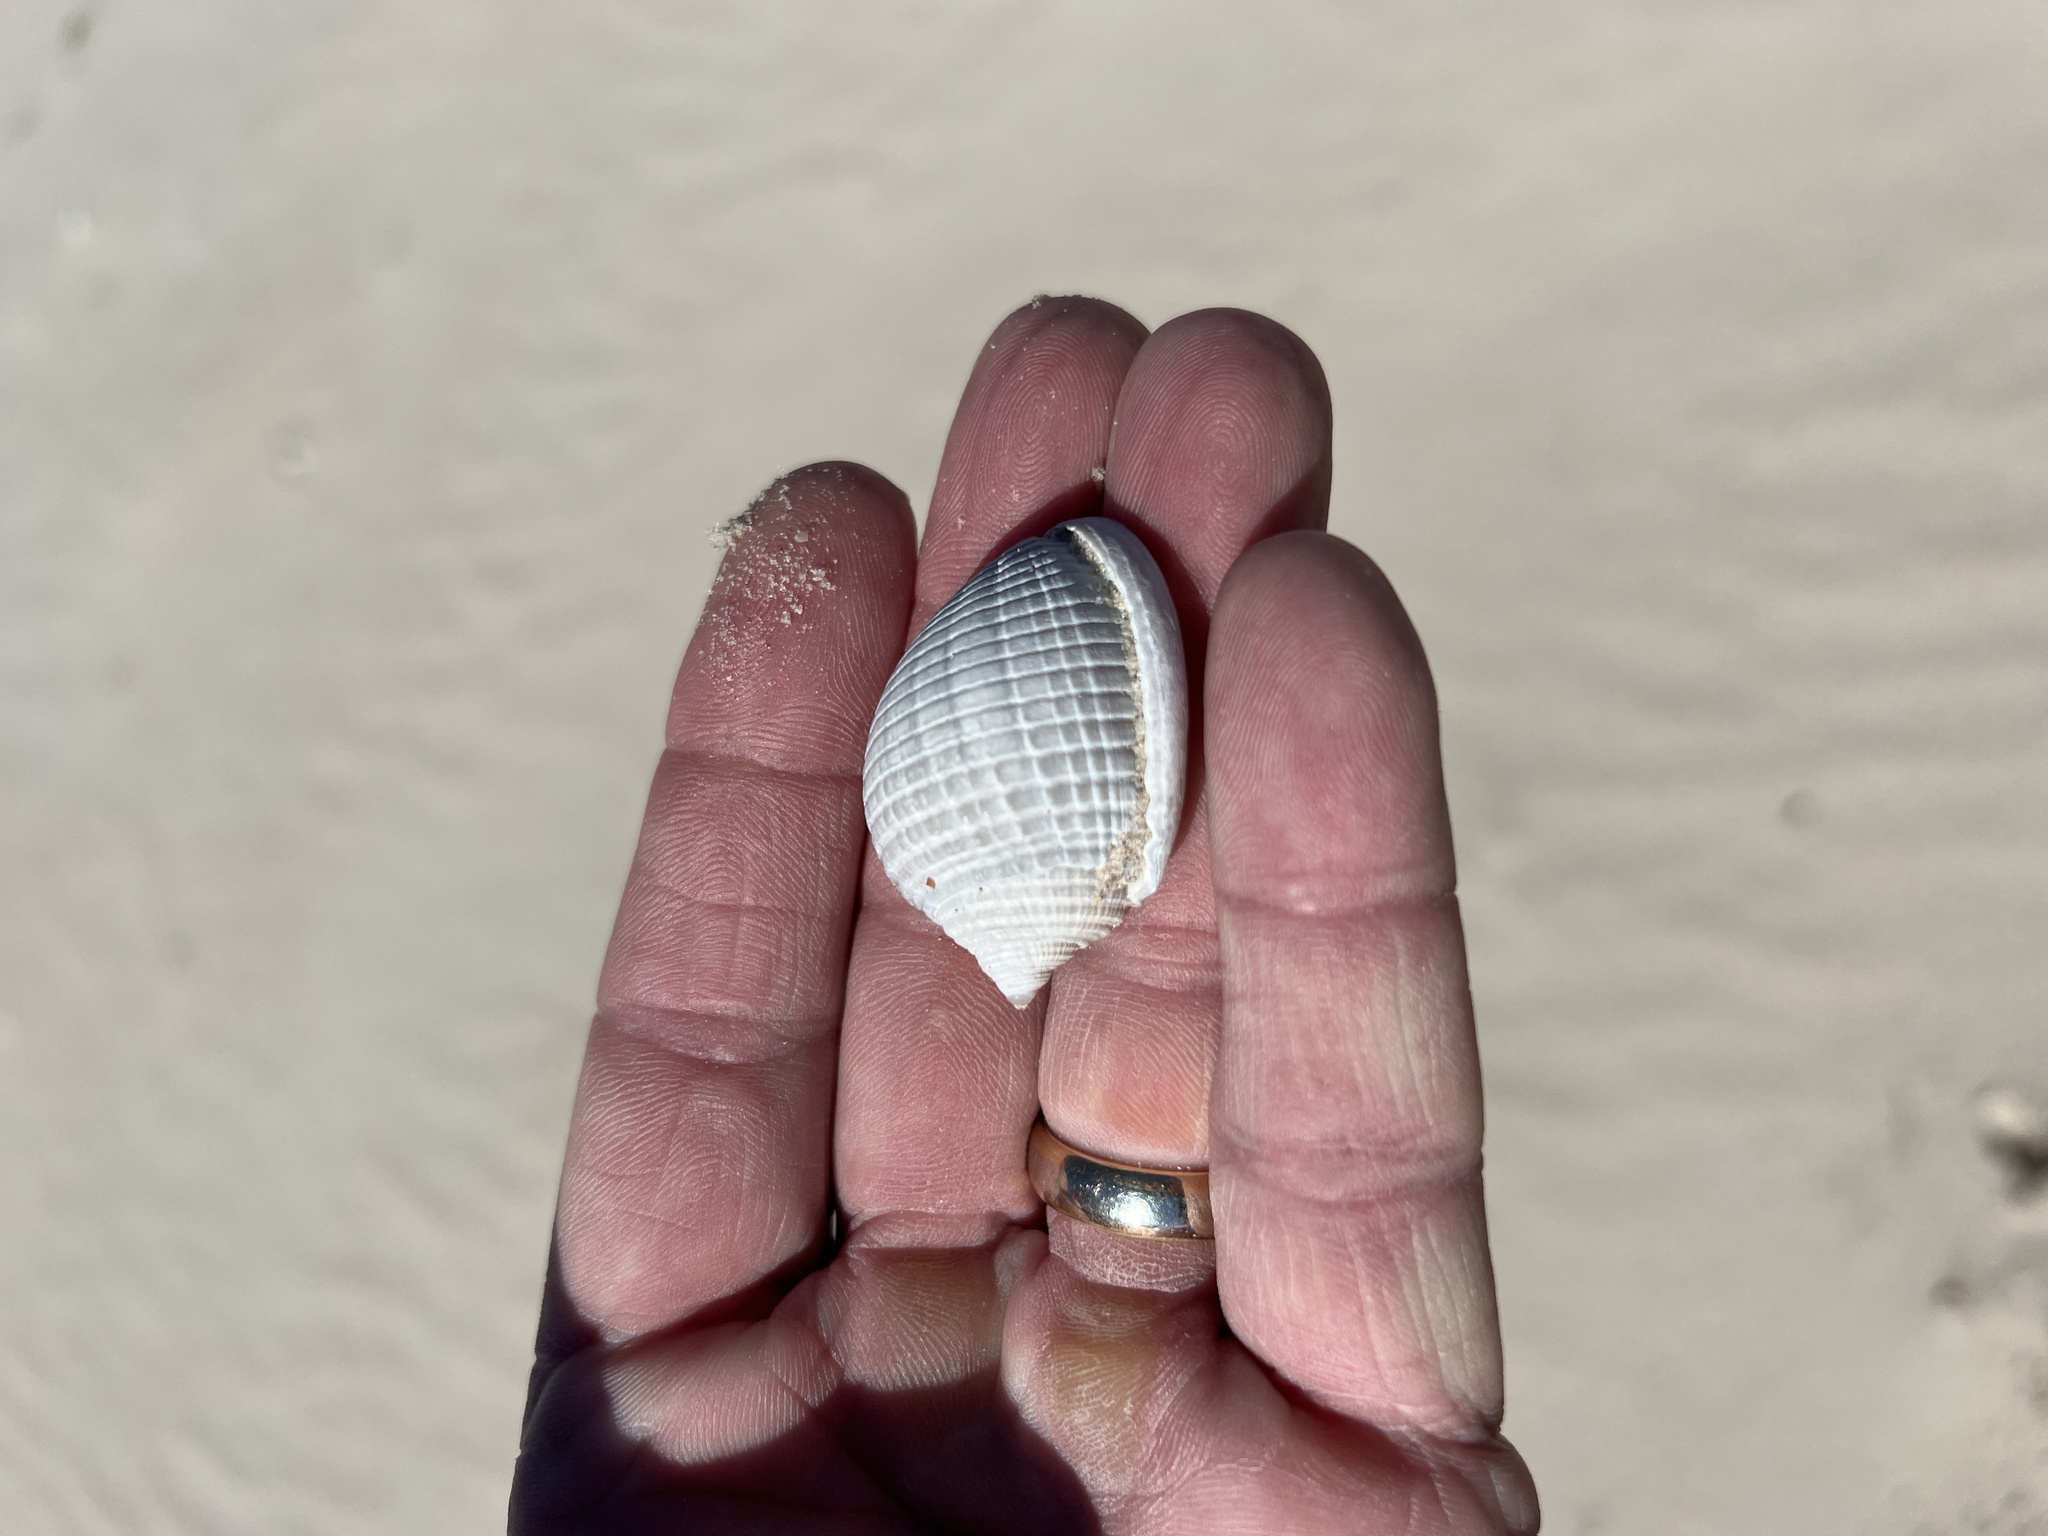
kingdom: Animalia
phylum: Mollusca
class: Gastropoda
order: Littorinimorpha
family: Cassidae
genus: Semicassis
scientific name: Semicassis granulata
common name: Scotch bonnet
